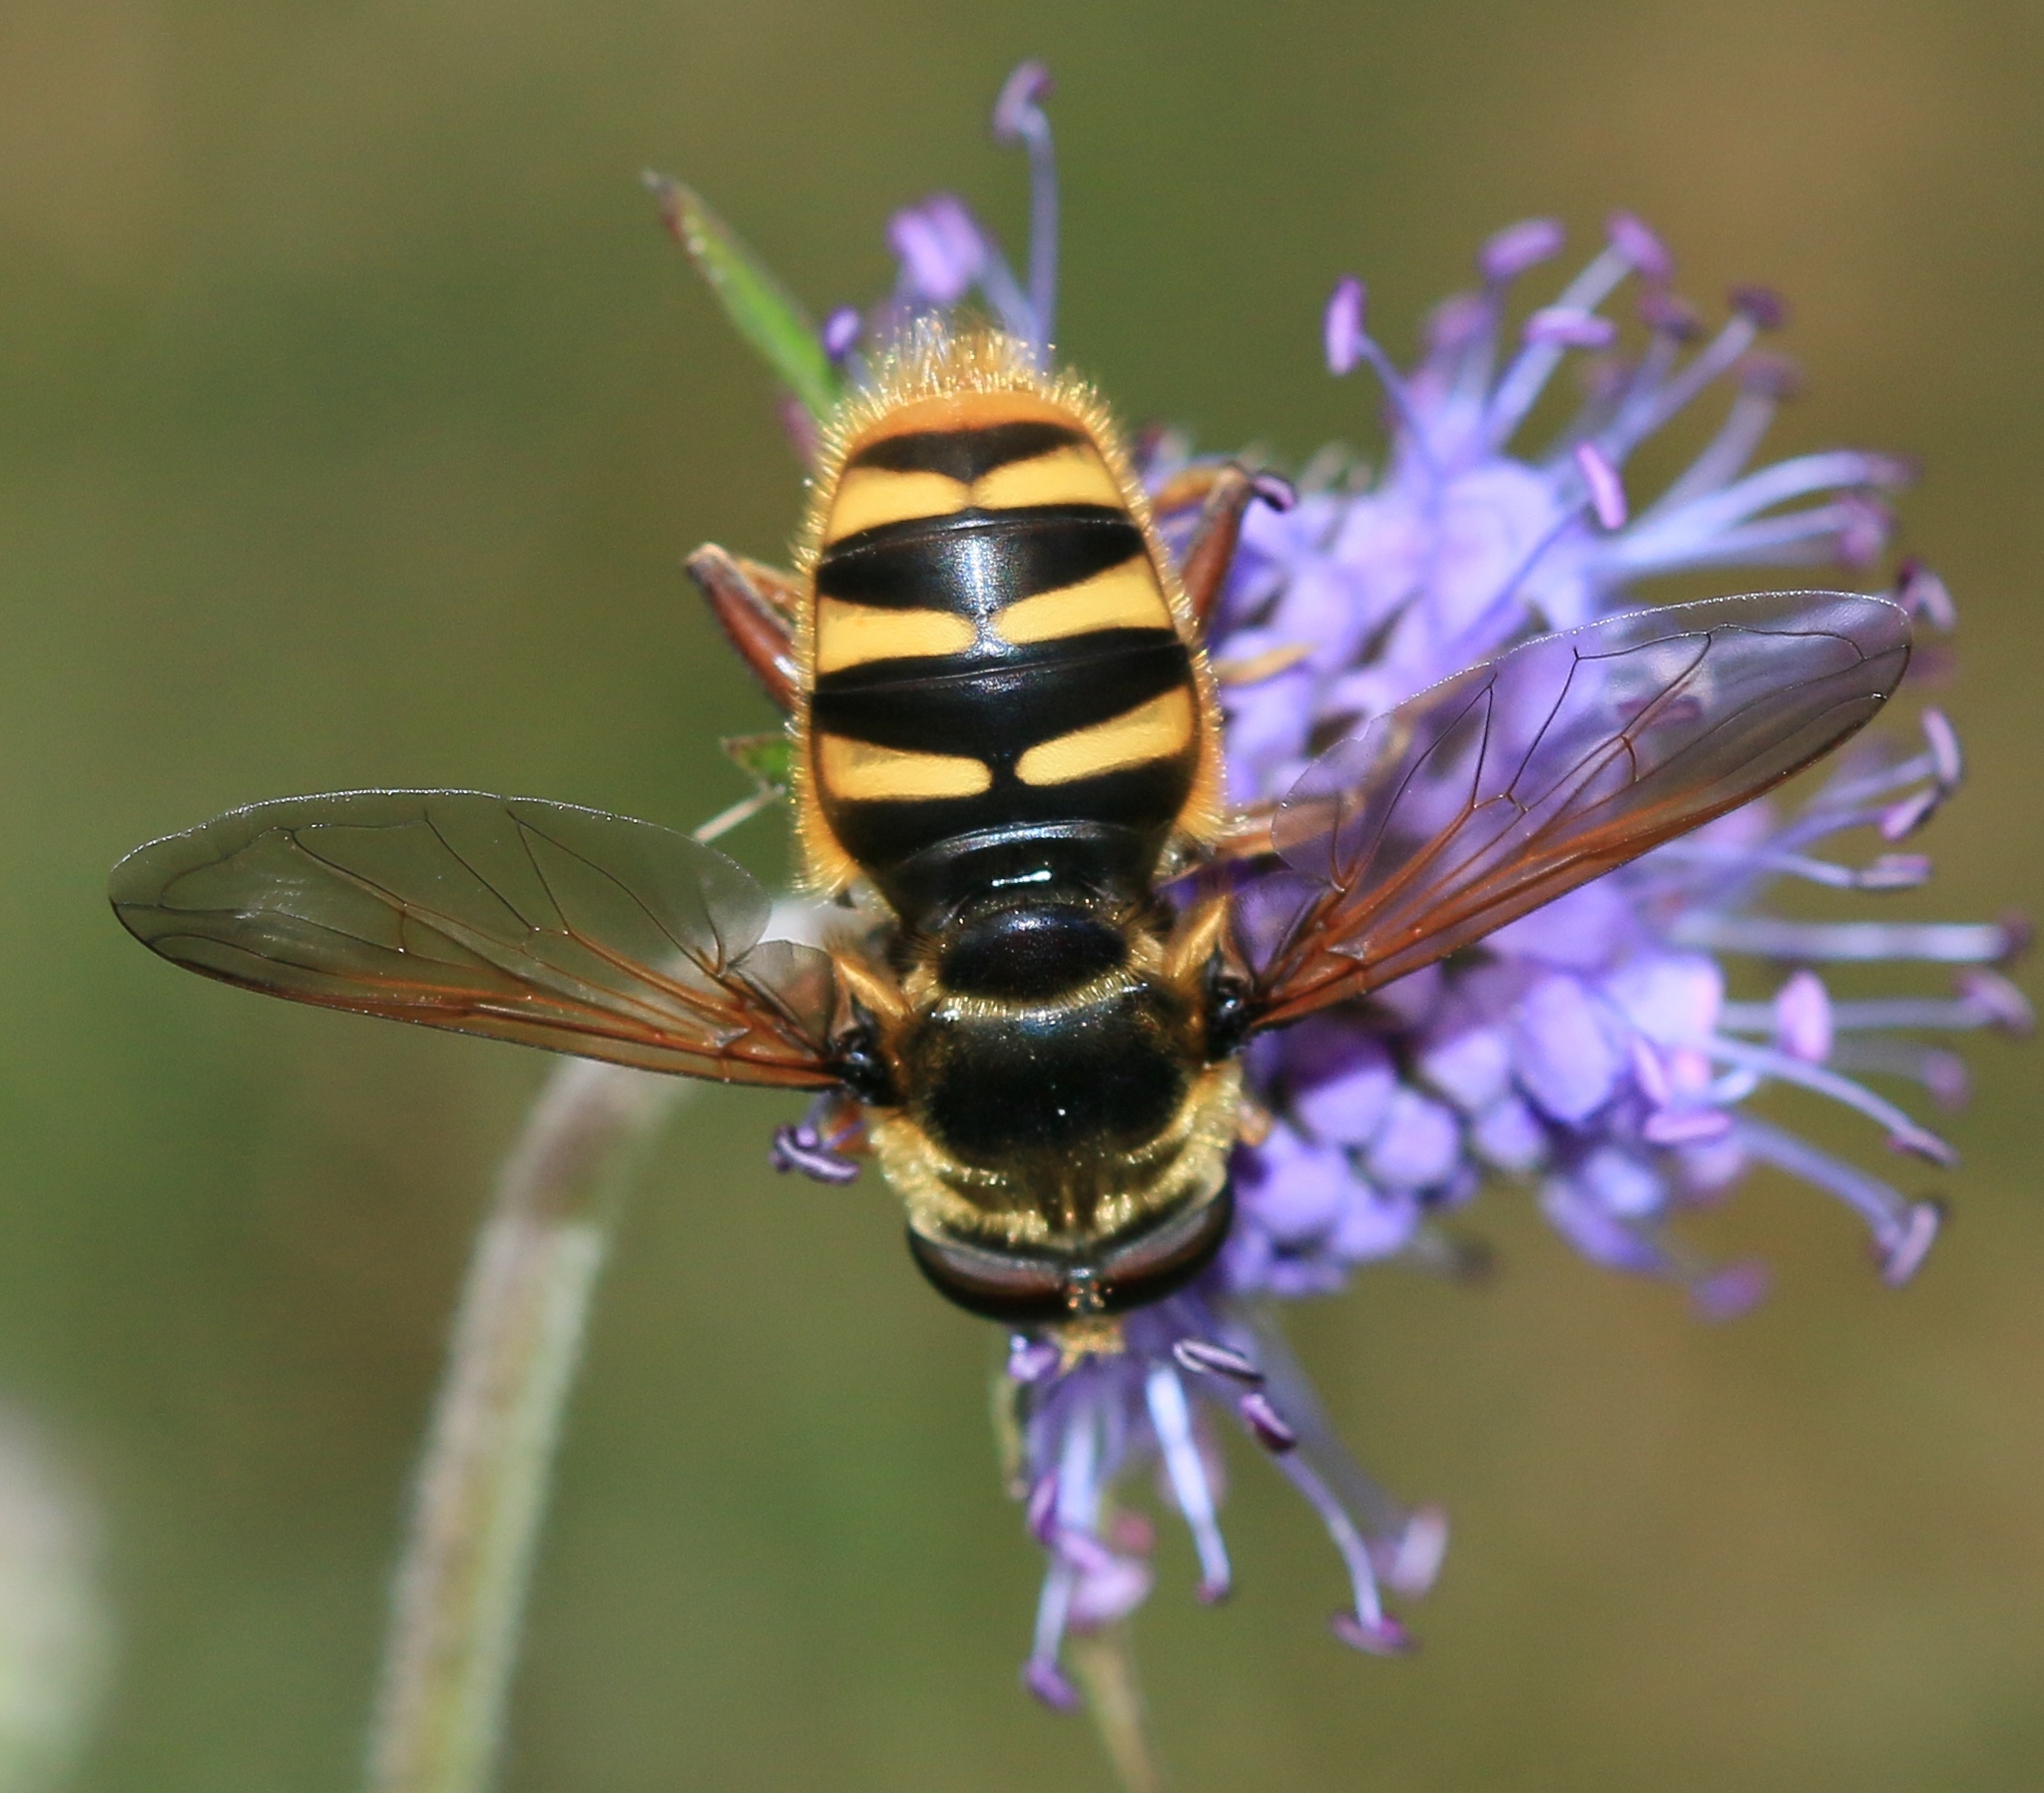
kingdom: Animalia
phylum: Arthropoda
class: Insecta
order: Diptera
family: Syrphidae
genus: Sericomyia
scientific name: Sericomyia silentis
